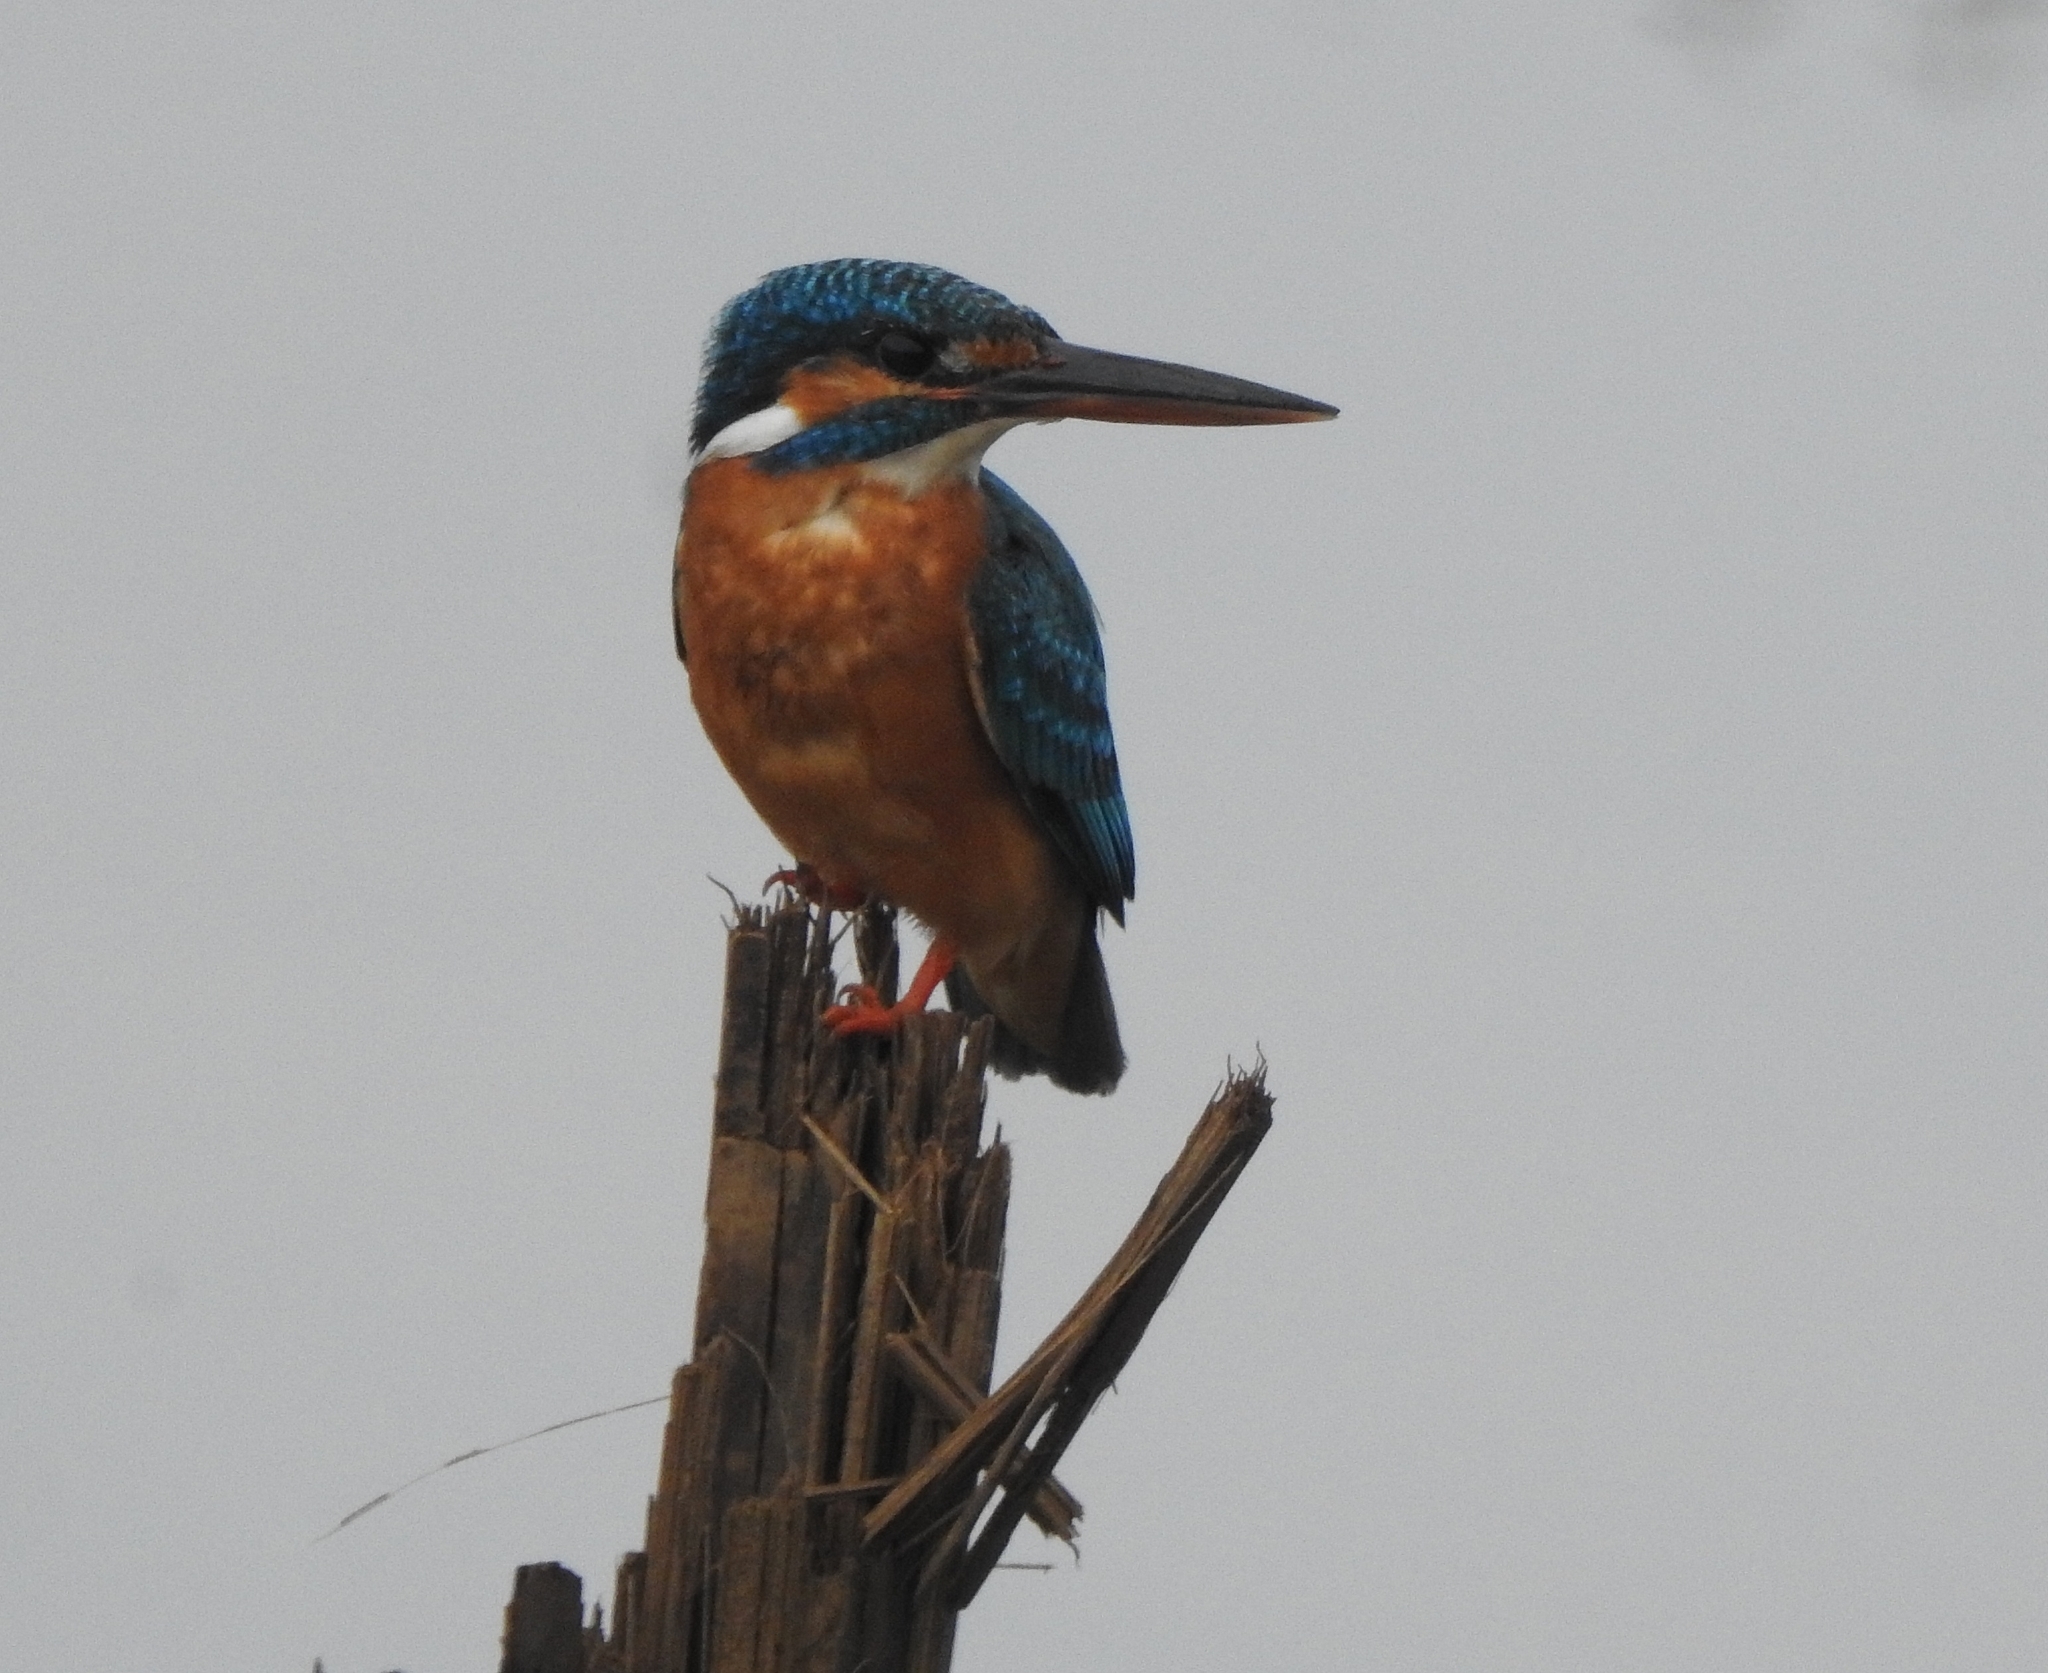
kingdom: Animalia
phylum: Chordata
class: Aves
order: Coraciiformes
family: Alcedinidae
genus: Alcedo
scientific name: Alcedo atthis
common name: Common kingfisher
